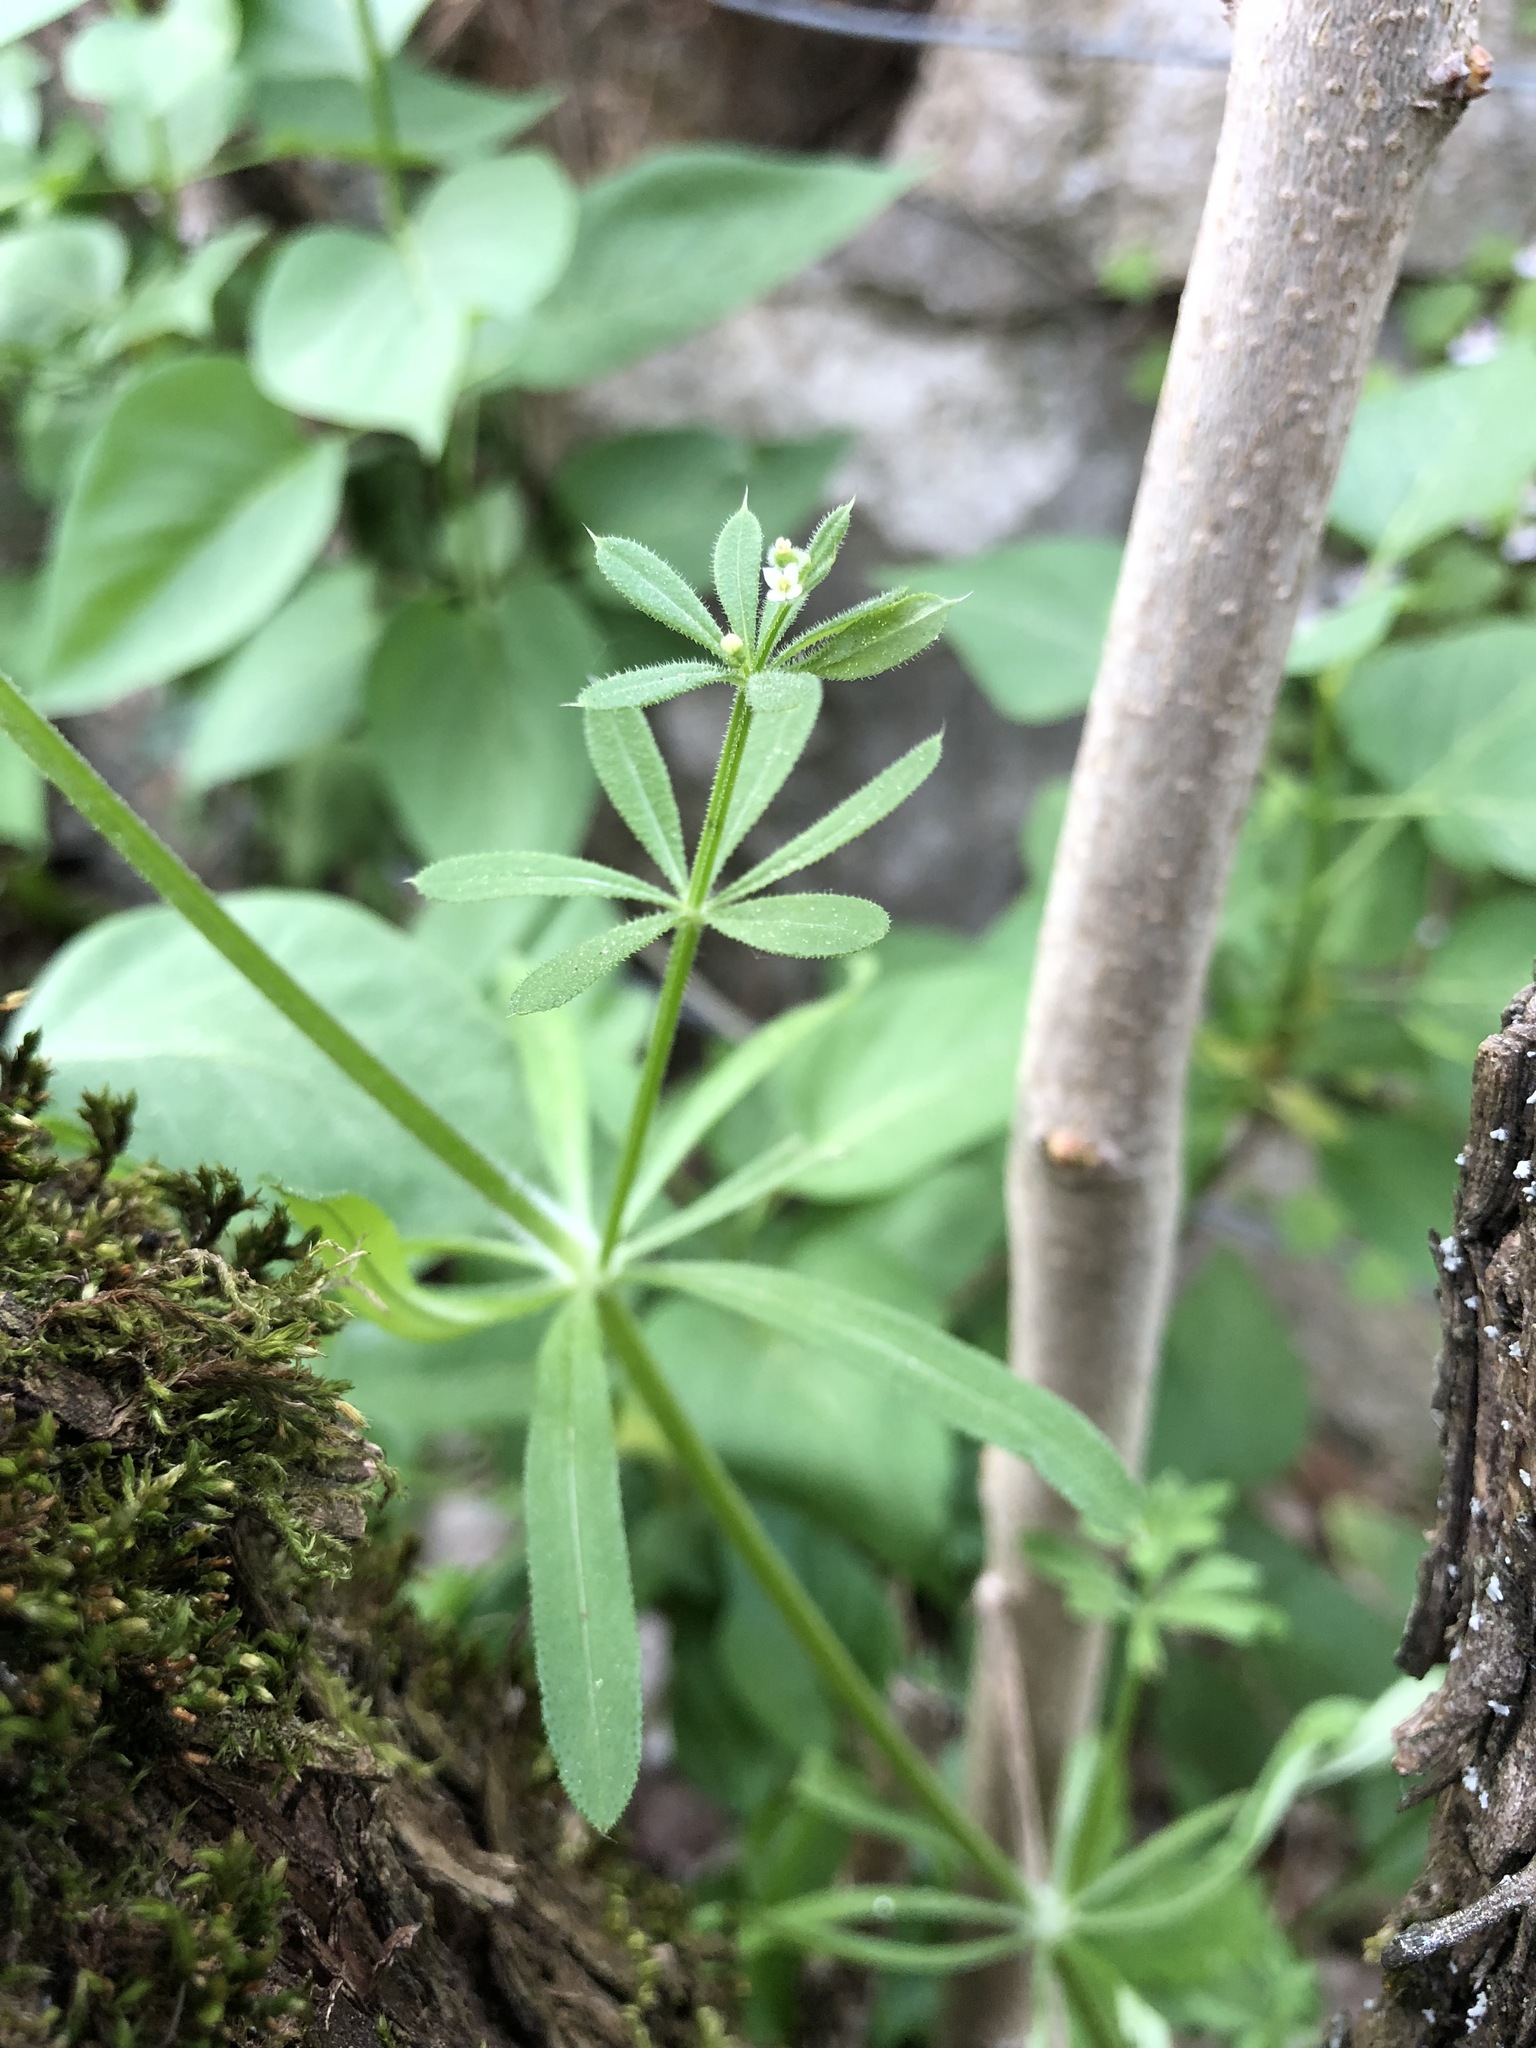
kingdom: Plantae
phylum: Tracheophyta
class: Magnoliopsida
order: Gentianales
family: Rubiaceae
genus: Galium
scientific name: Galium aparine
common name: Cleavers
